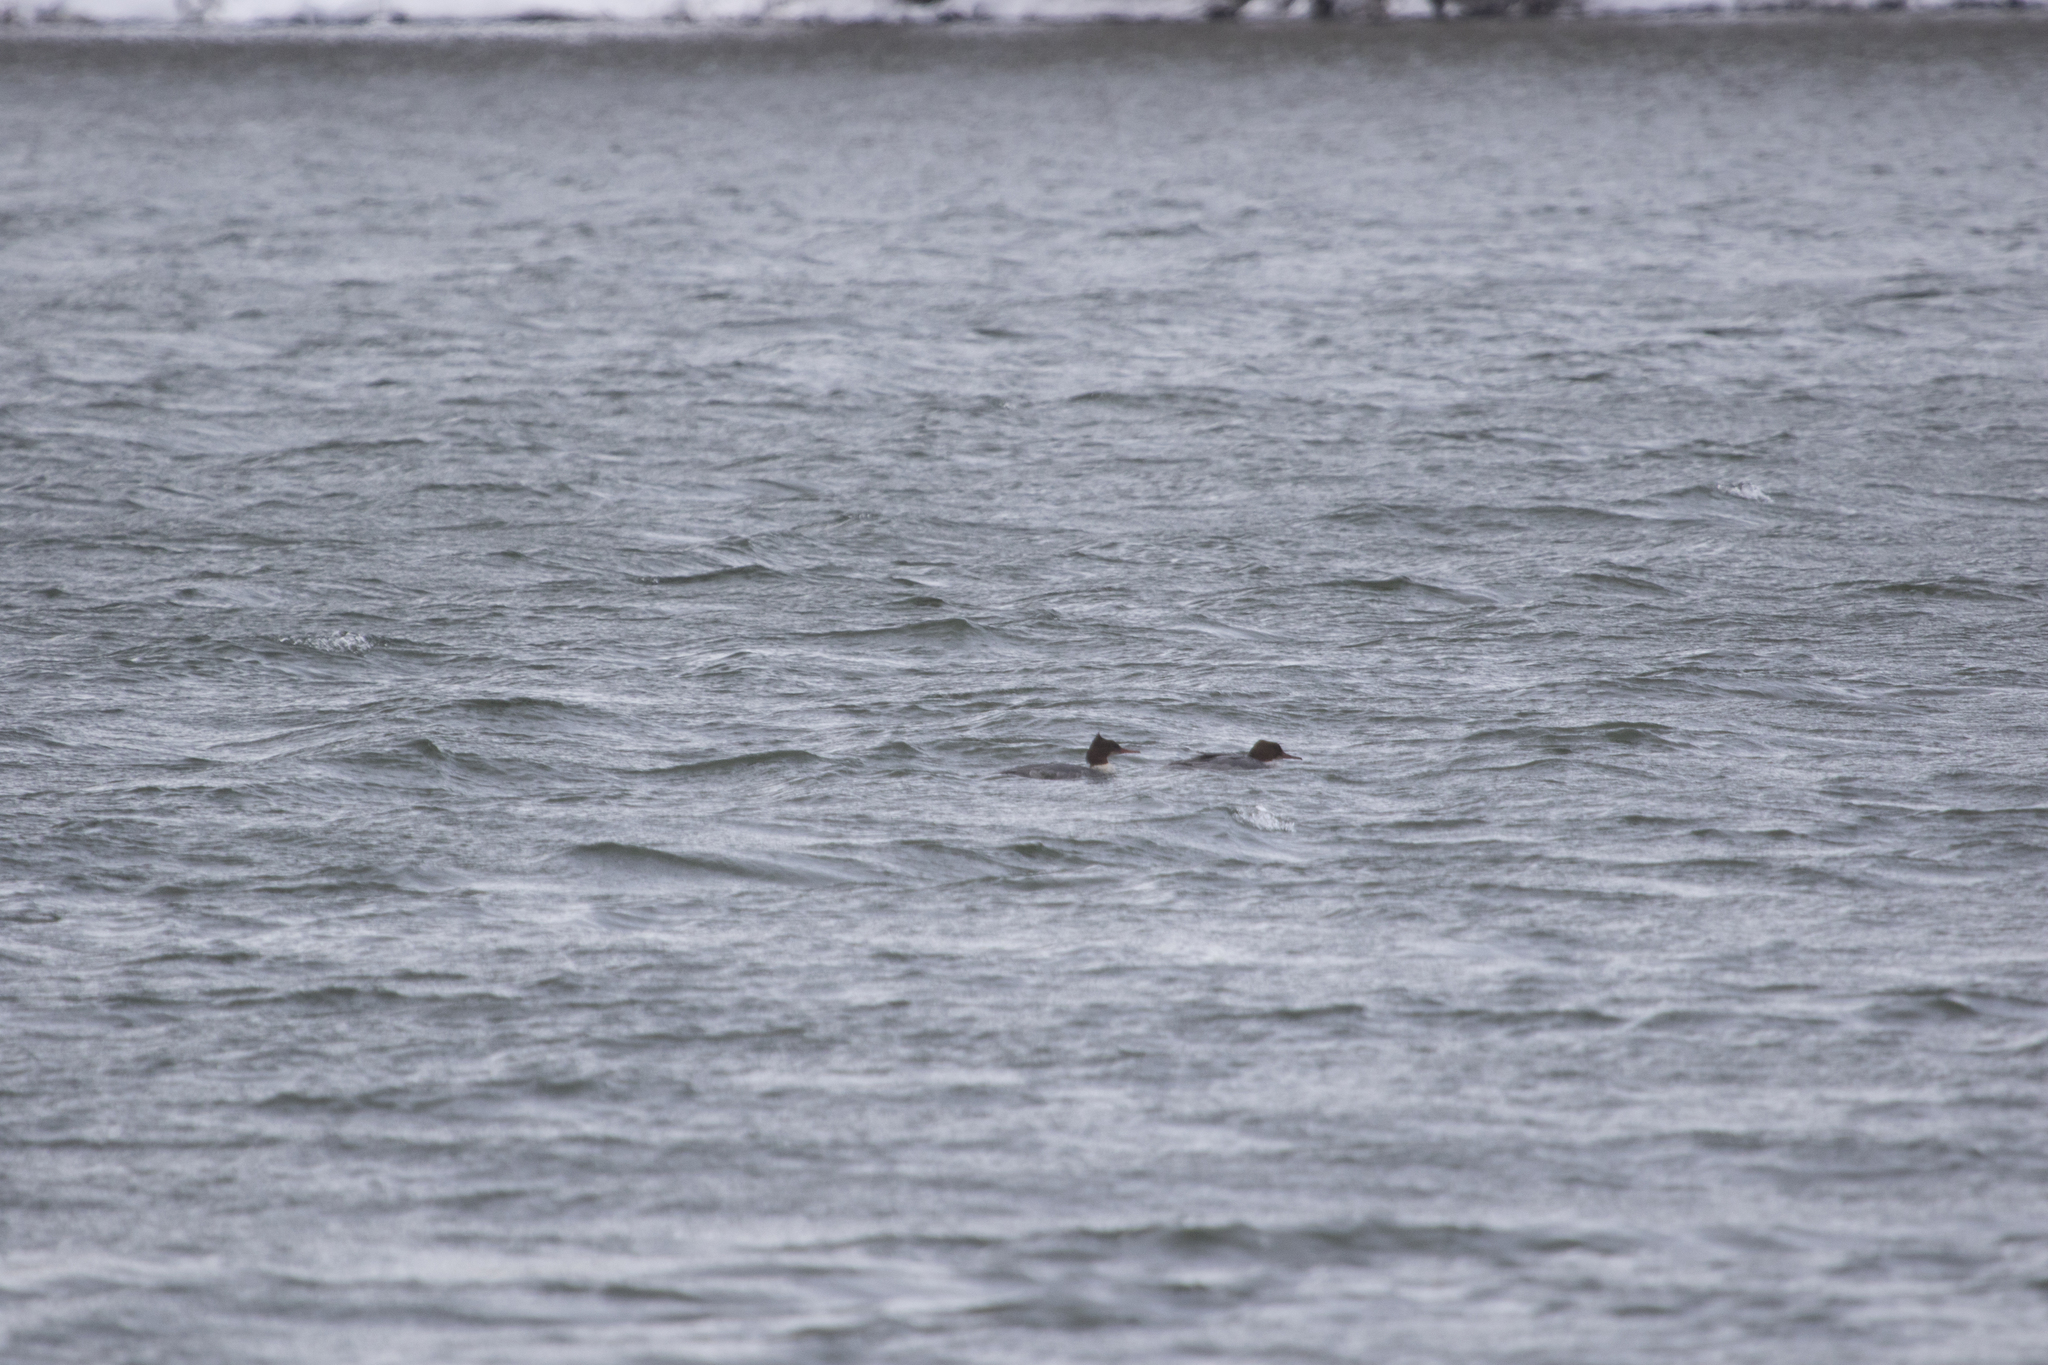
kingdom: Animalia
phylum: Chordata
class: Aves
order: Anseriformes
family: Anatidae
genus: Mergus
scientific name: Mergus merganser
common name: Common merganser
